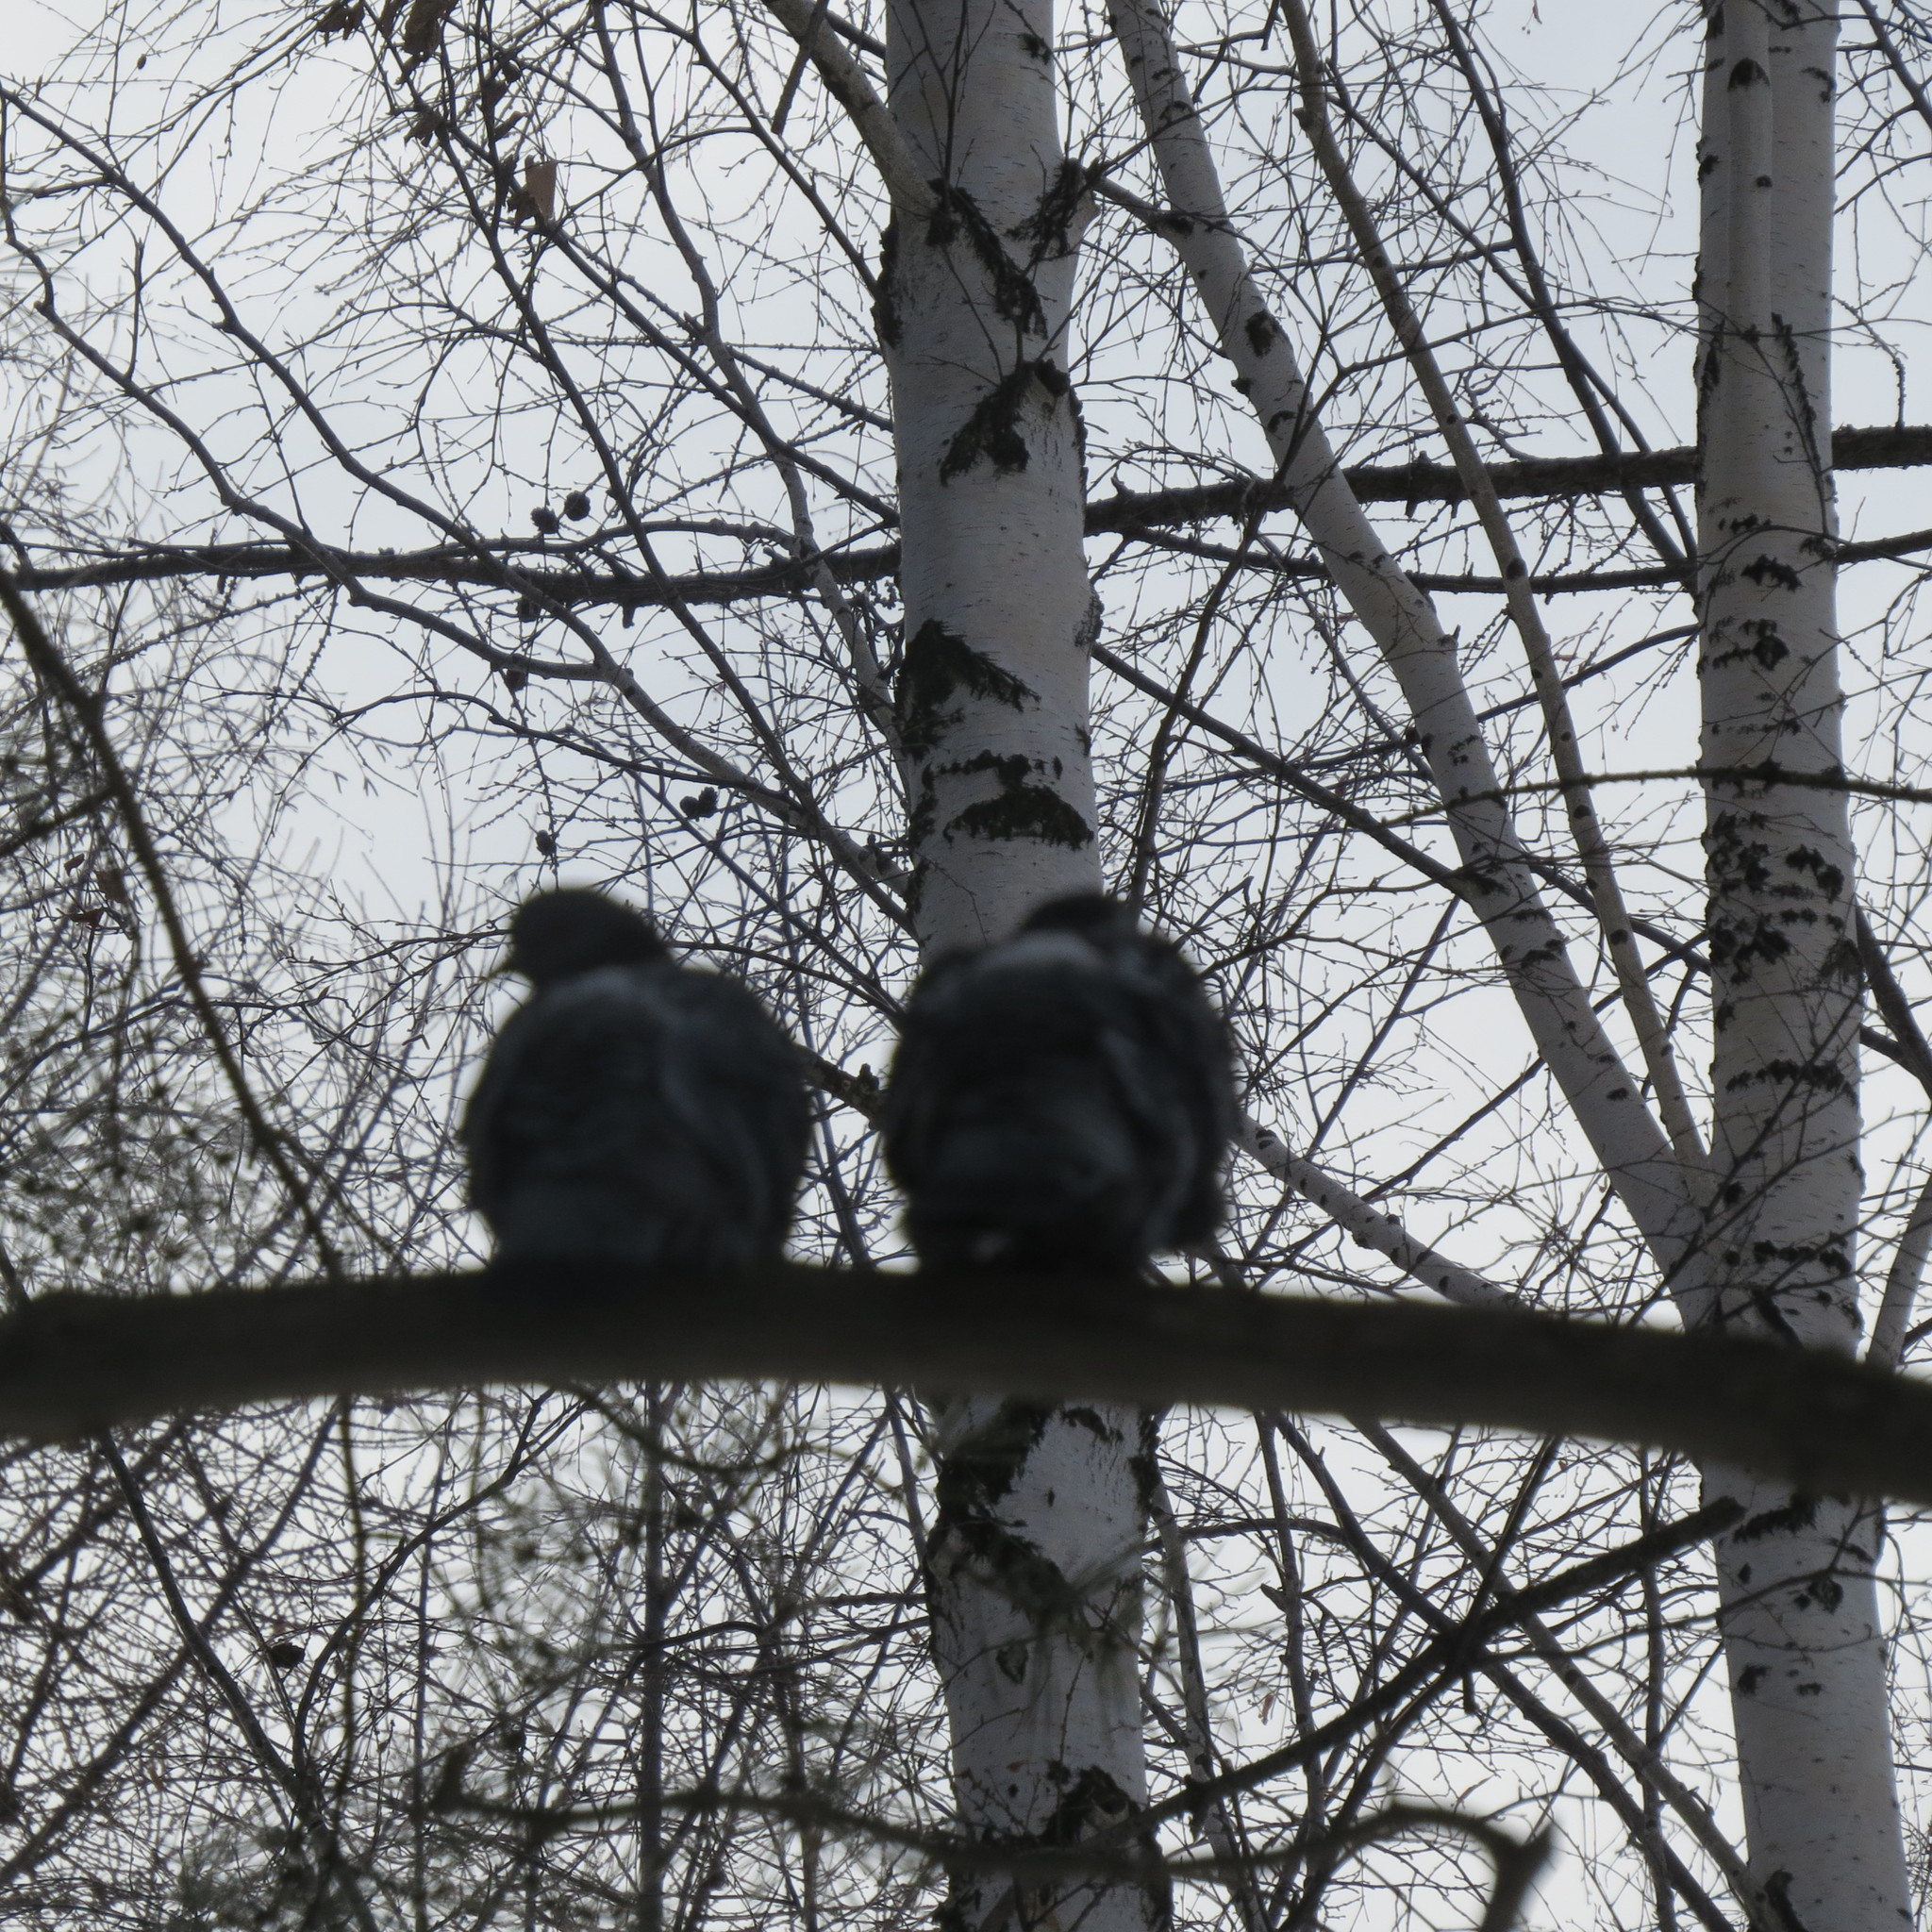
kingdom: Animalia
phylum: Chordata
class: Aves
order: Columbiformes
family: Columbidae
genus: Columba
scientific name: Columba livia
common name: Rock pigeon
